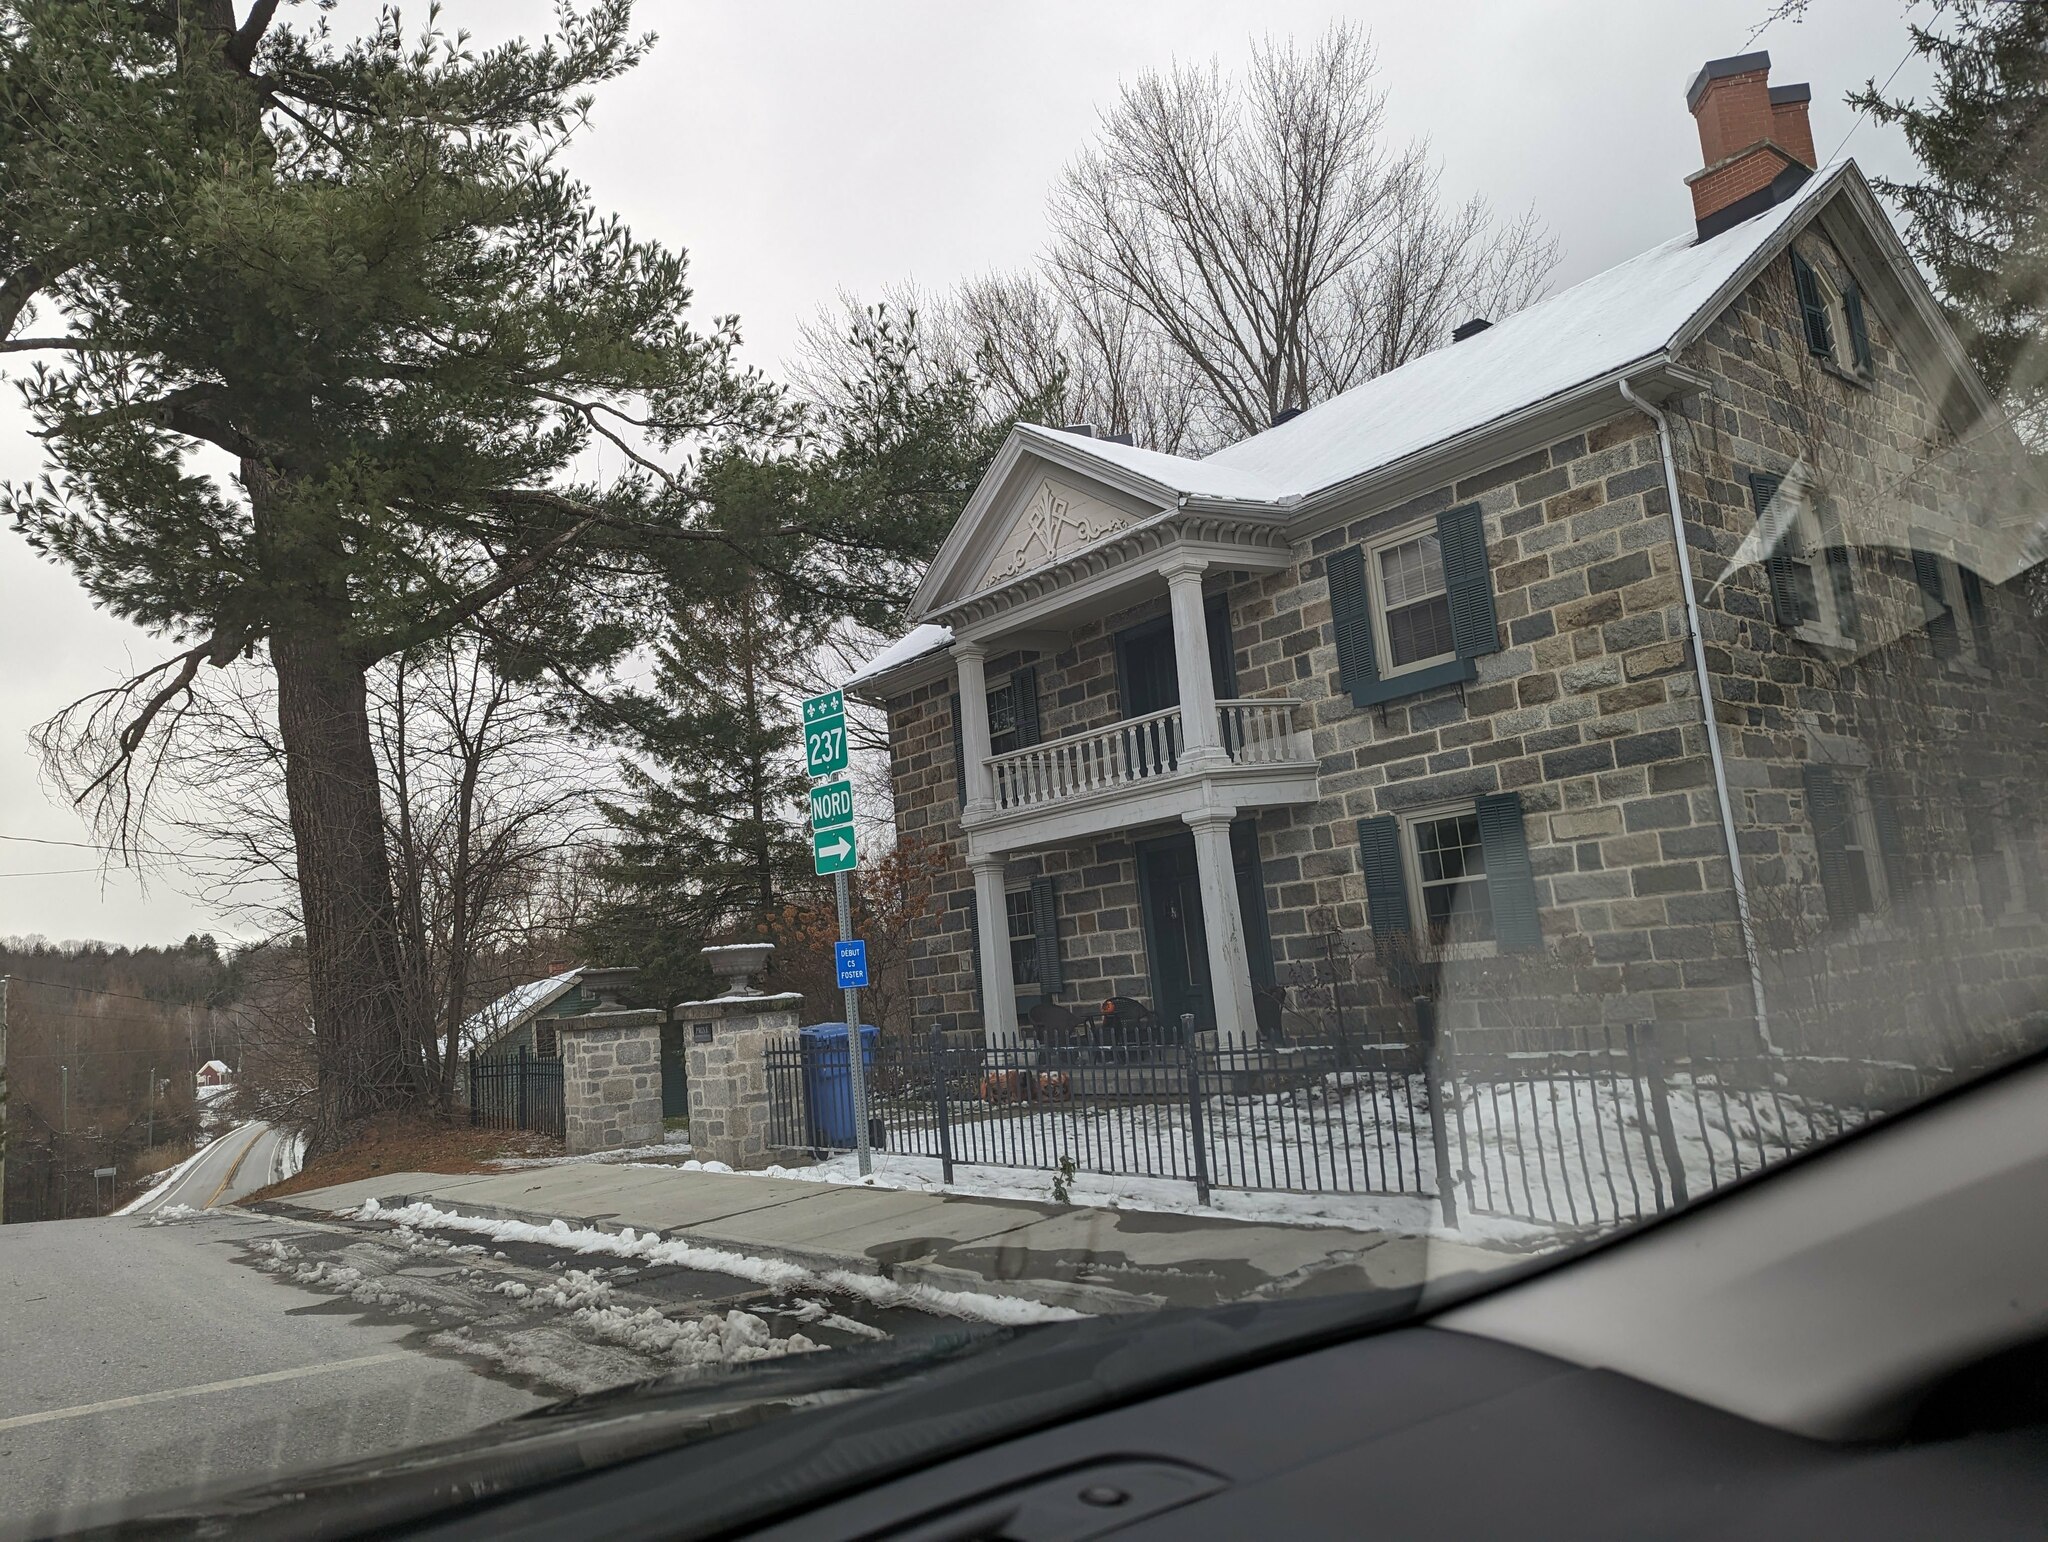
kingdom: Plantae
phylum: Tracheophyta
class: Pinopsida
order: Pinales
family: Pinaceae
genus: Pinus
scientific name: Pinus strobus
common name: Weymouth pine
